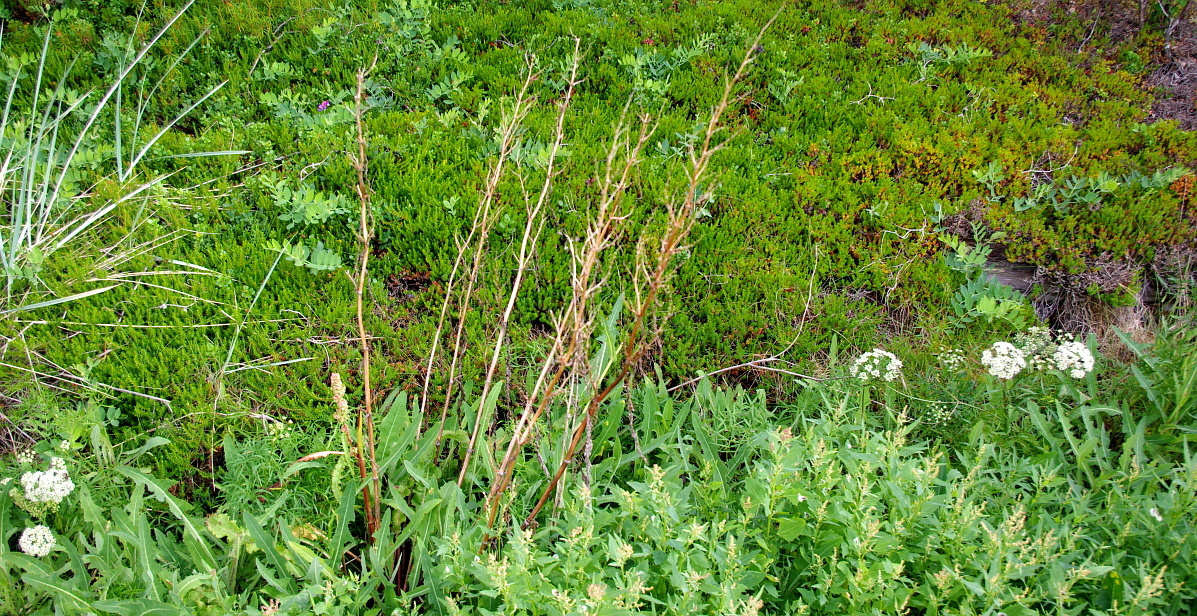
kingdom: Plantae
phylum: Tracheophyta
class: Magnoliopsida
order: Caryophyllales
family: Polygonaceae
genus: Rumex
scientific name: Rumex pseudonatronatus
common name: Field dock
